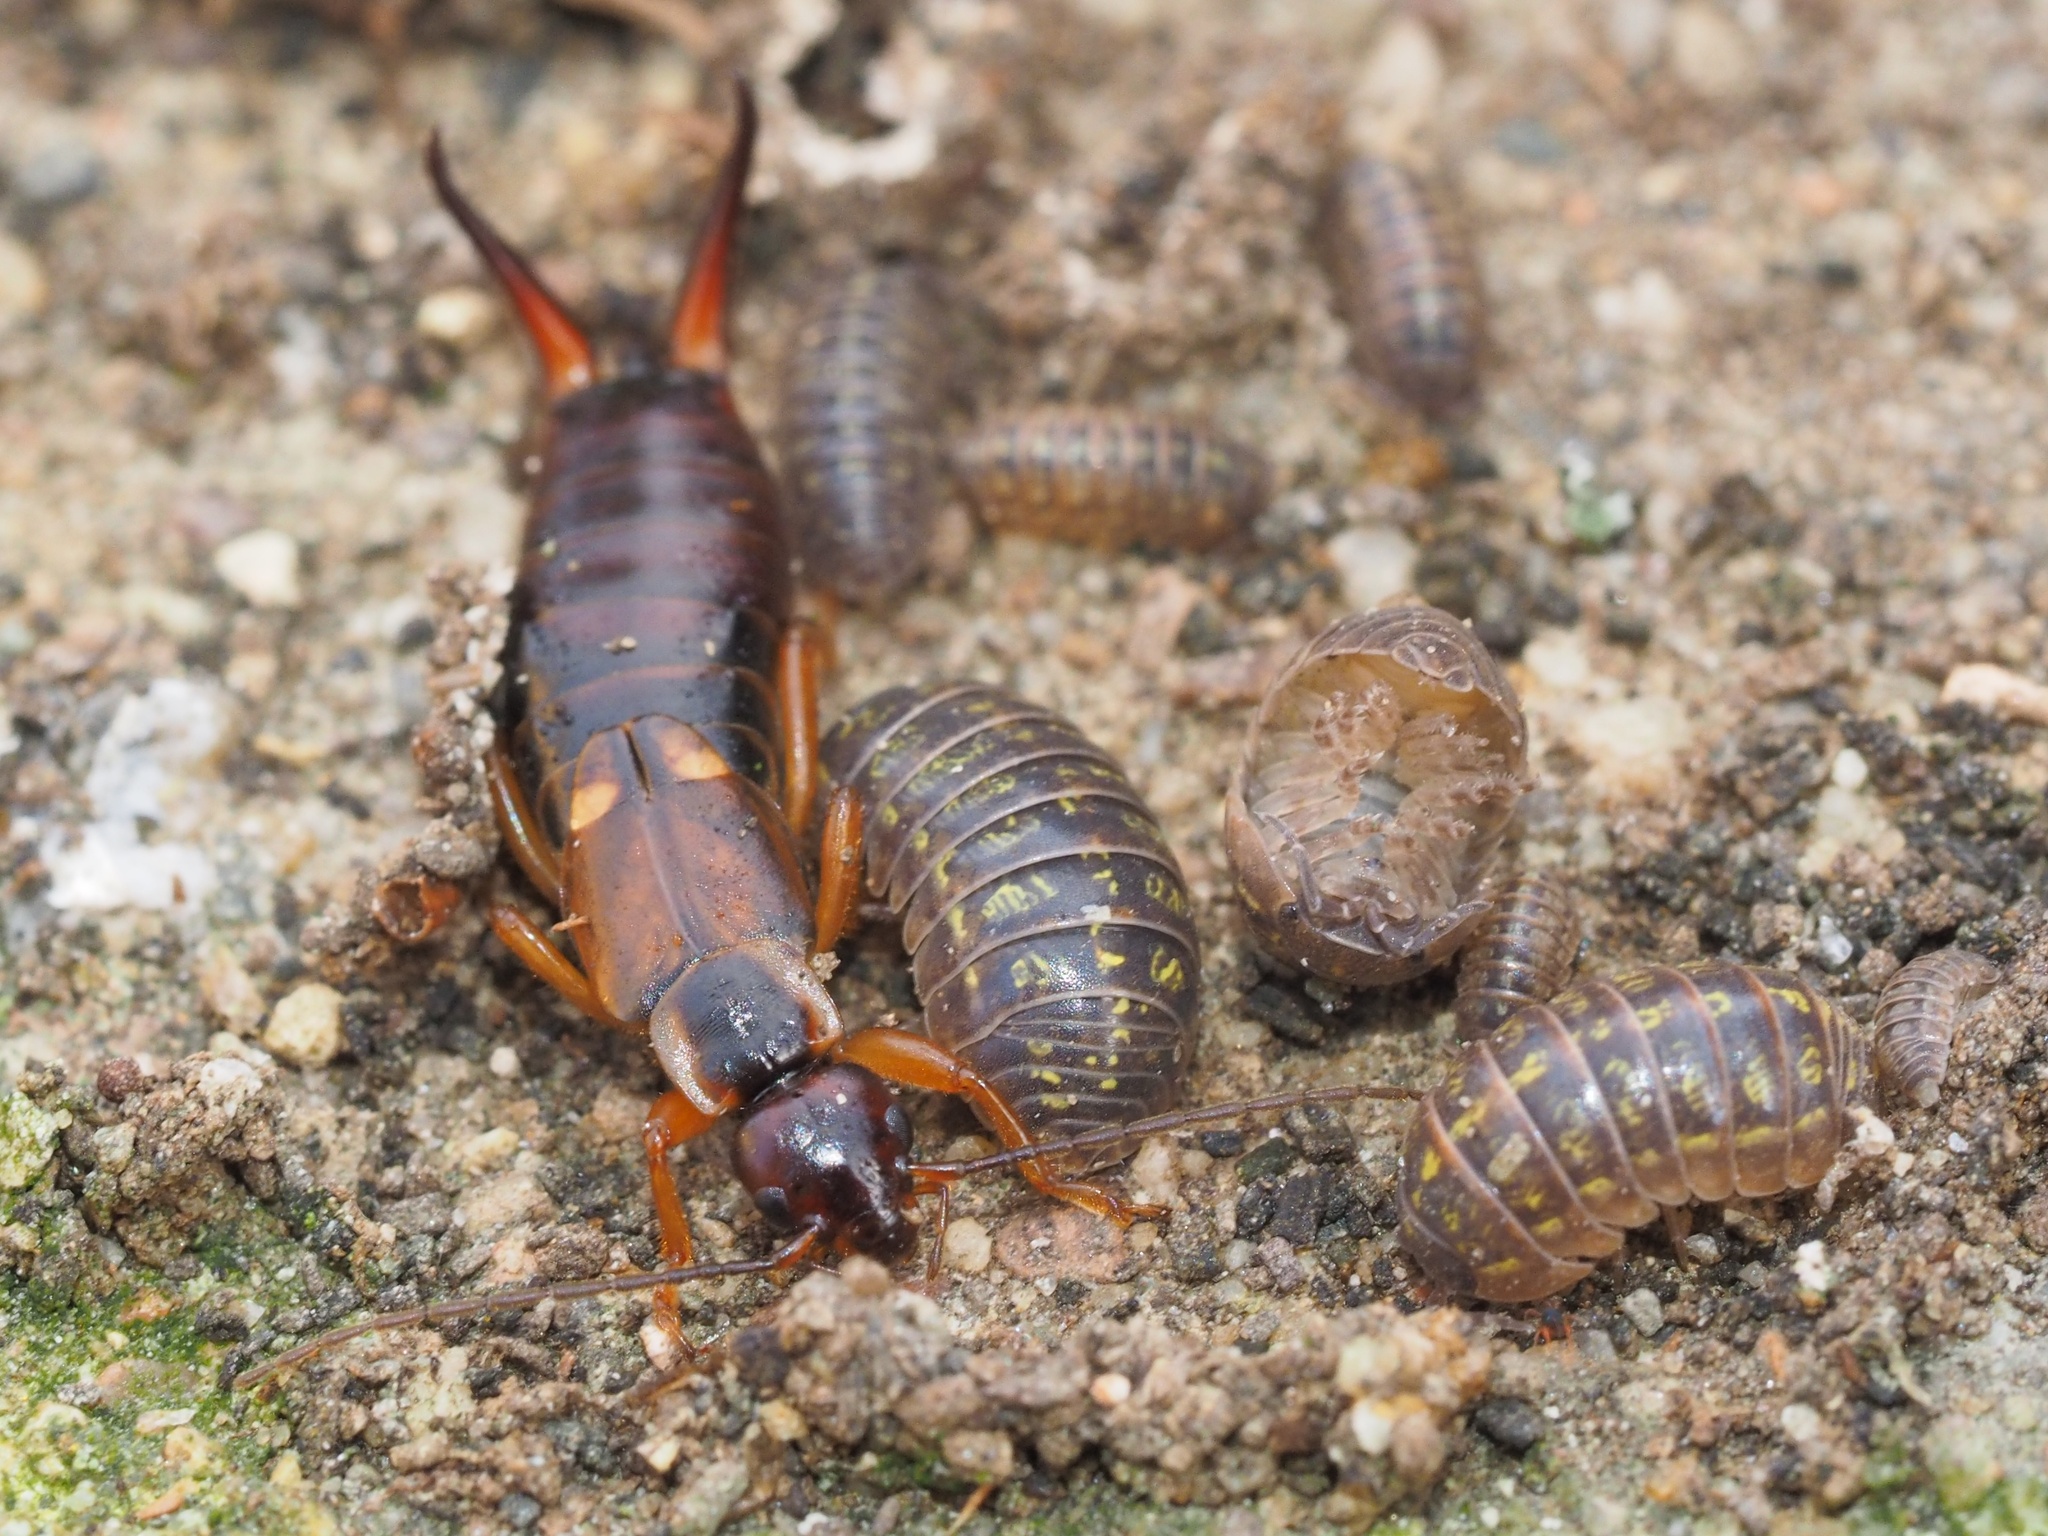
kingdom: Animalia
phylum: Arthropoda
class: Insecta
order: Dermaptera
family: Forficulidae
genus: Forficula
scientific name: Forficula
